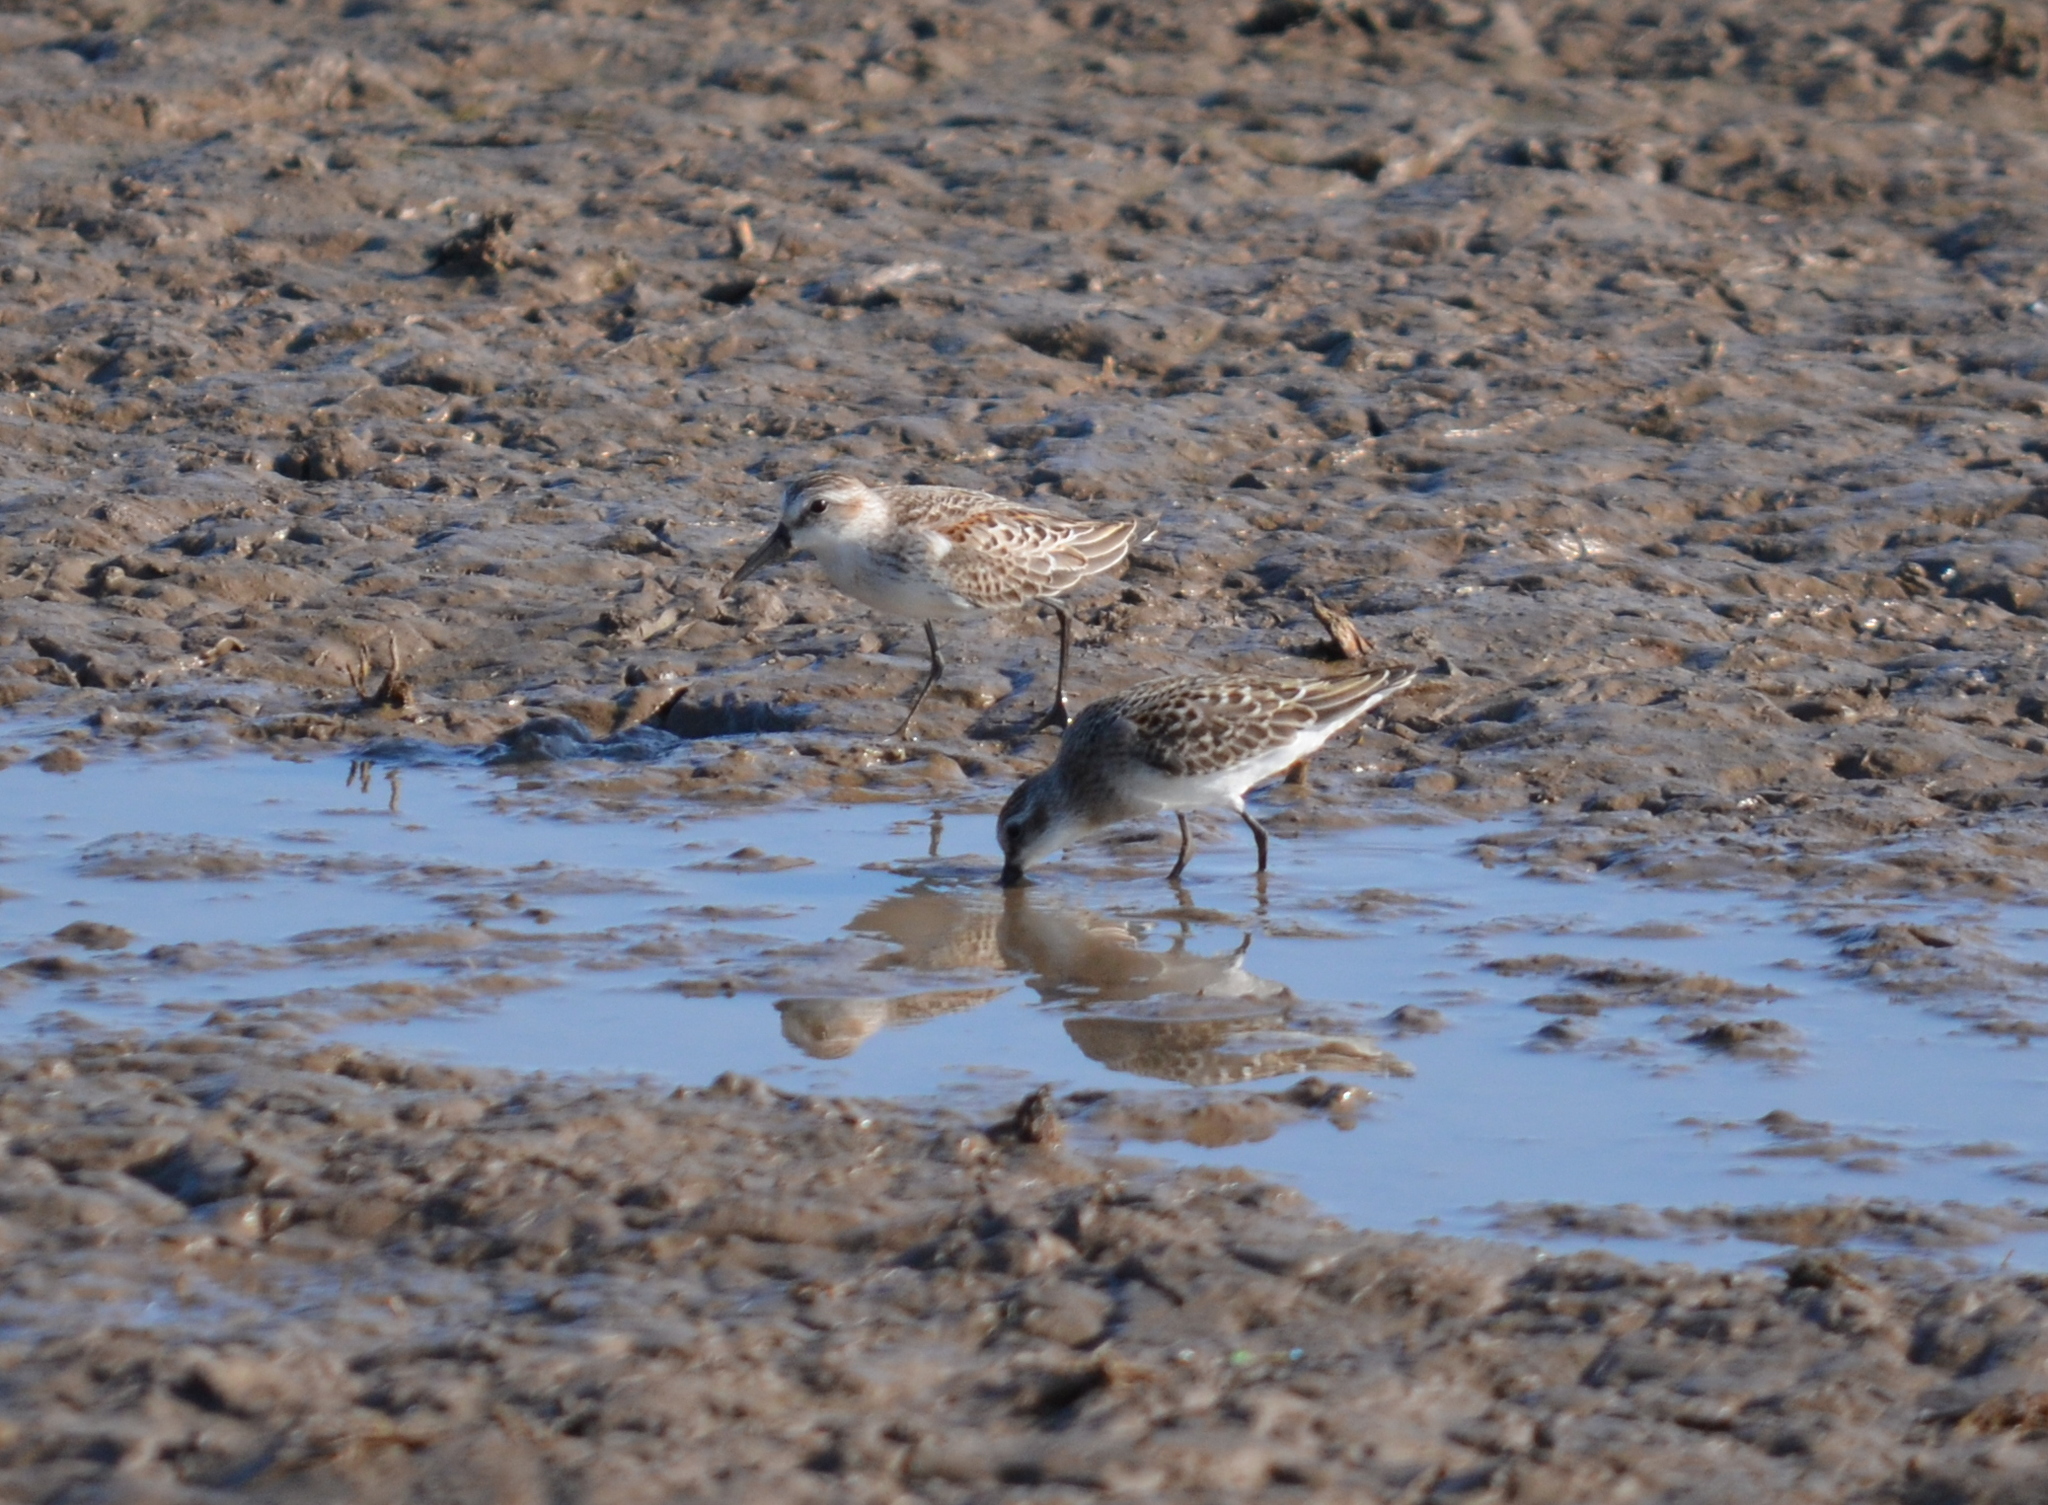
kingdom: Animalia
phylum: Chordata
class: Aves
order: Charadriiformes
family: Scolopacidae
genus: Calidris
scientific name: Calidris mauri
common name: Western sandpiper
